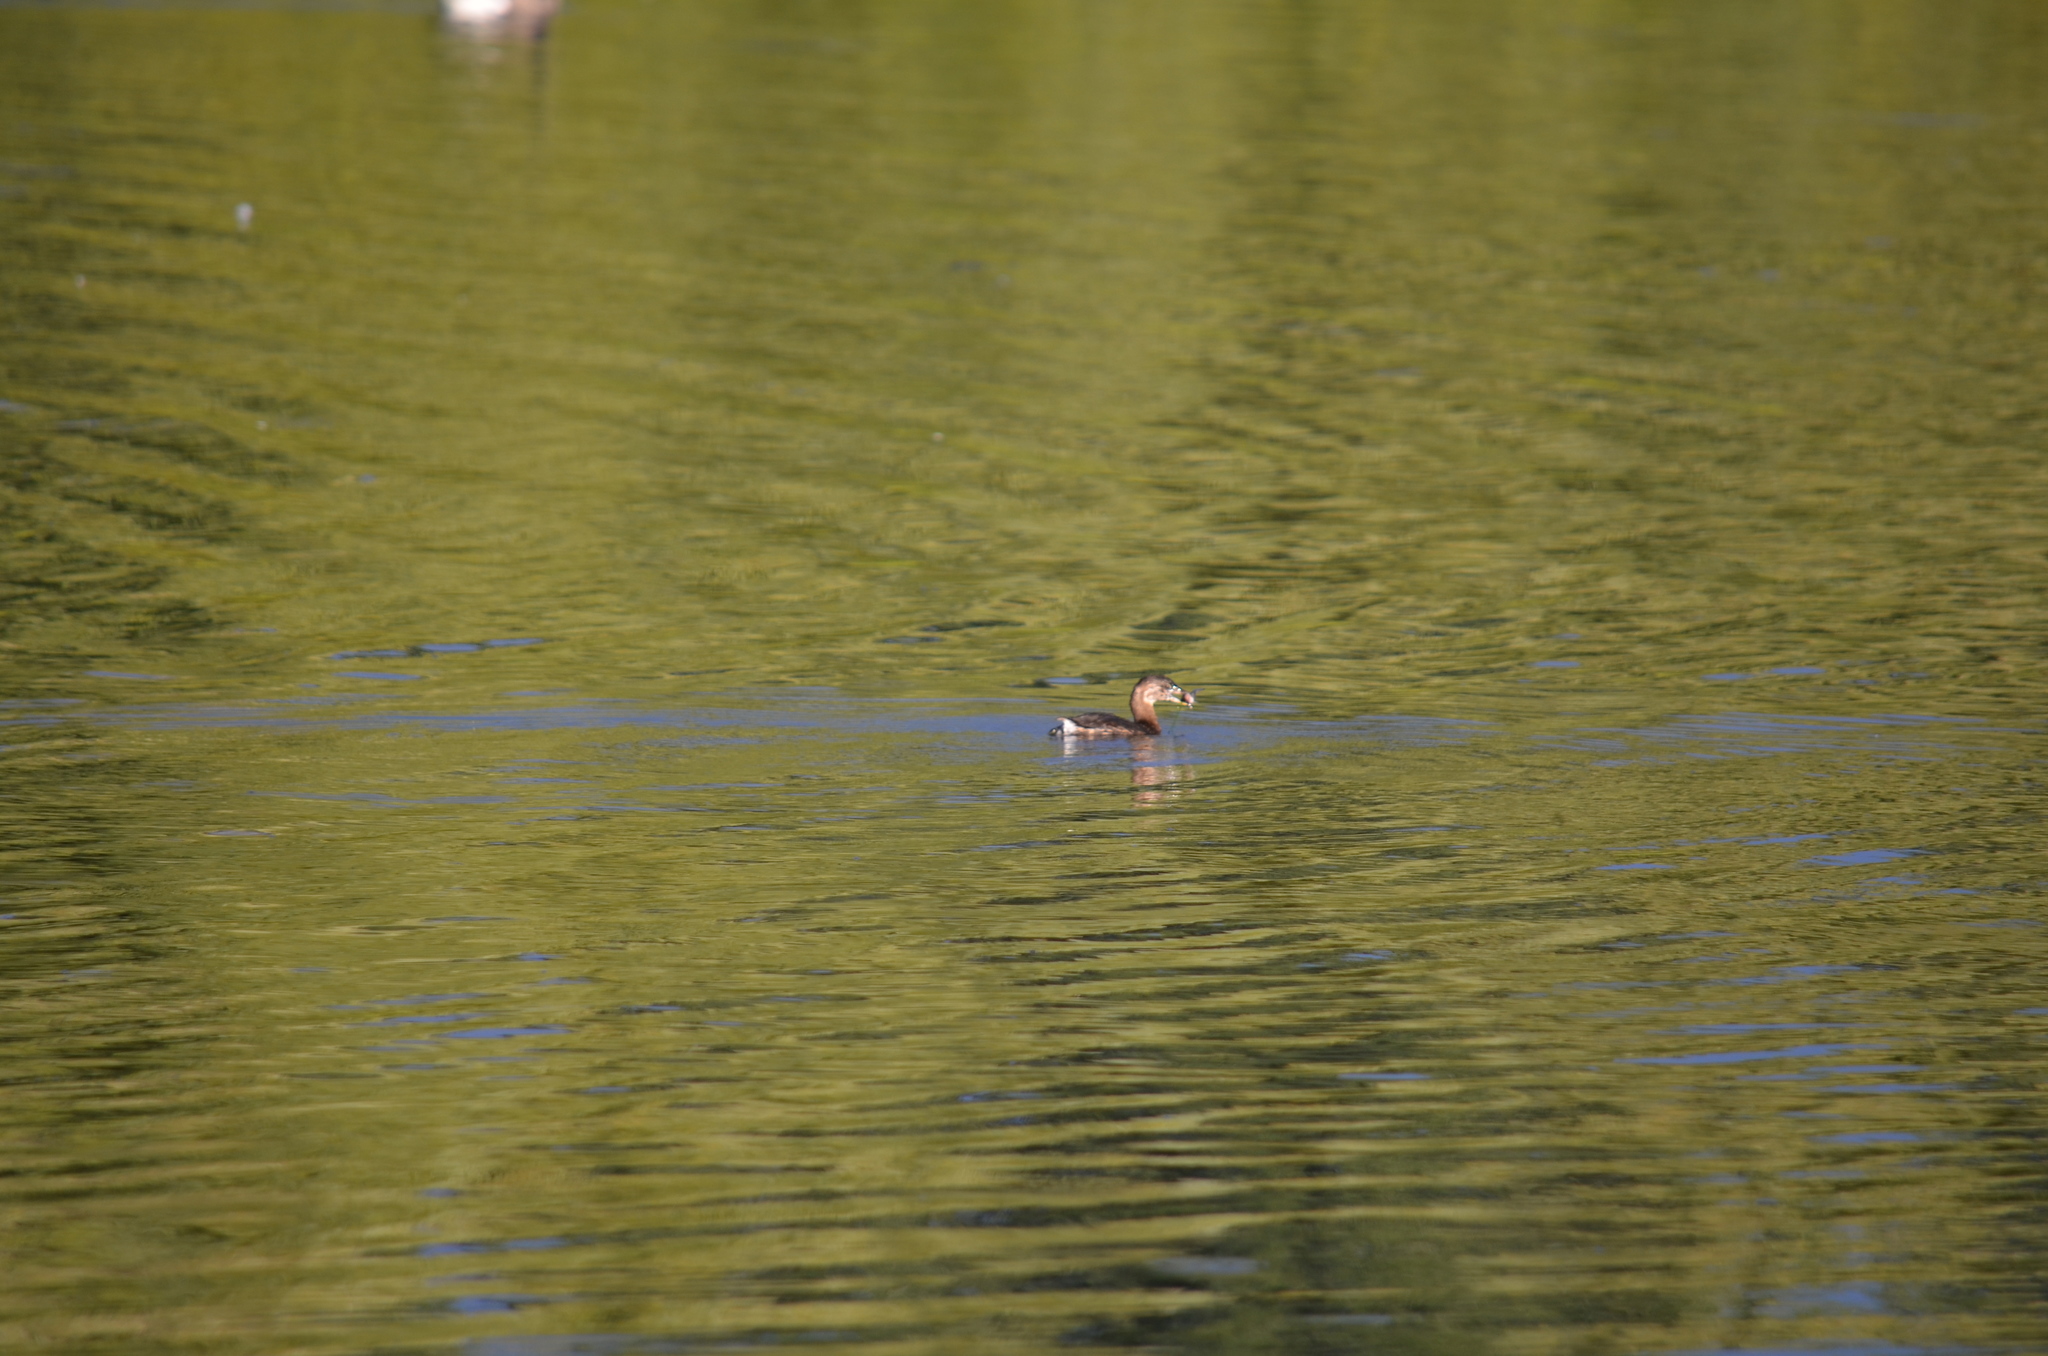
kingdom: Animalia
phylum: Chordata
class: Aves
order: Podicipediformes
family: Podicipedidae
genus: Podilymbus
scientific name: Podilymbus podiceps
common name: Pied-billed grebe
